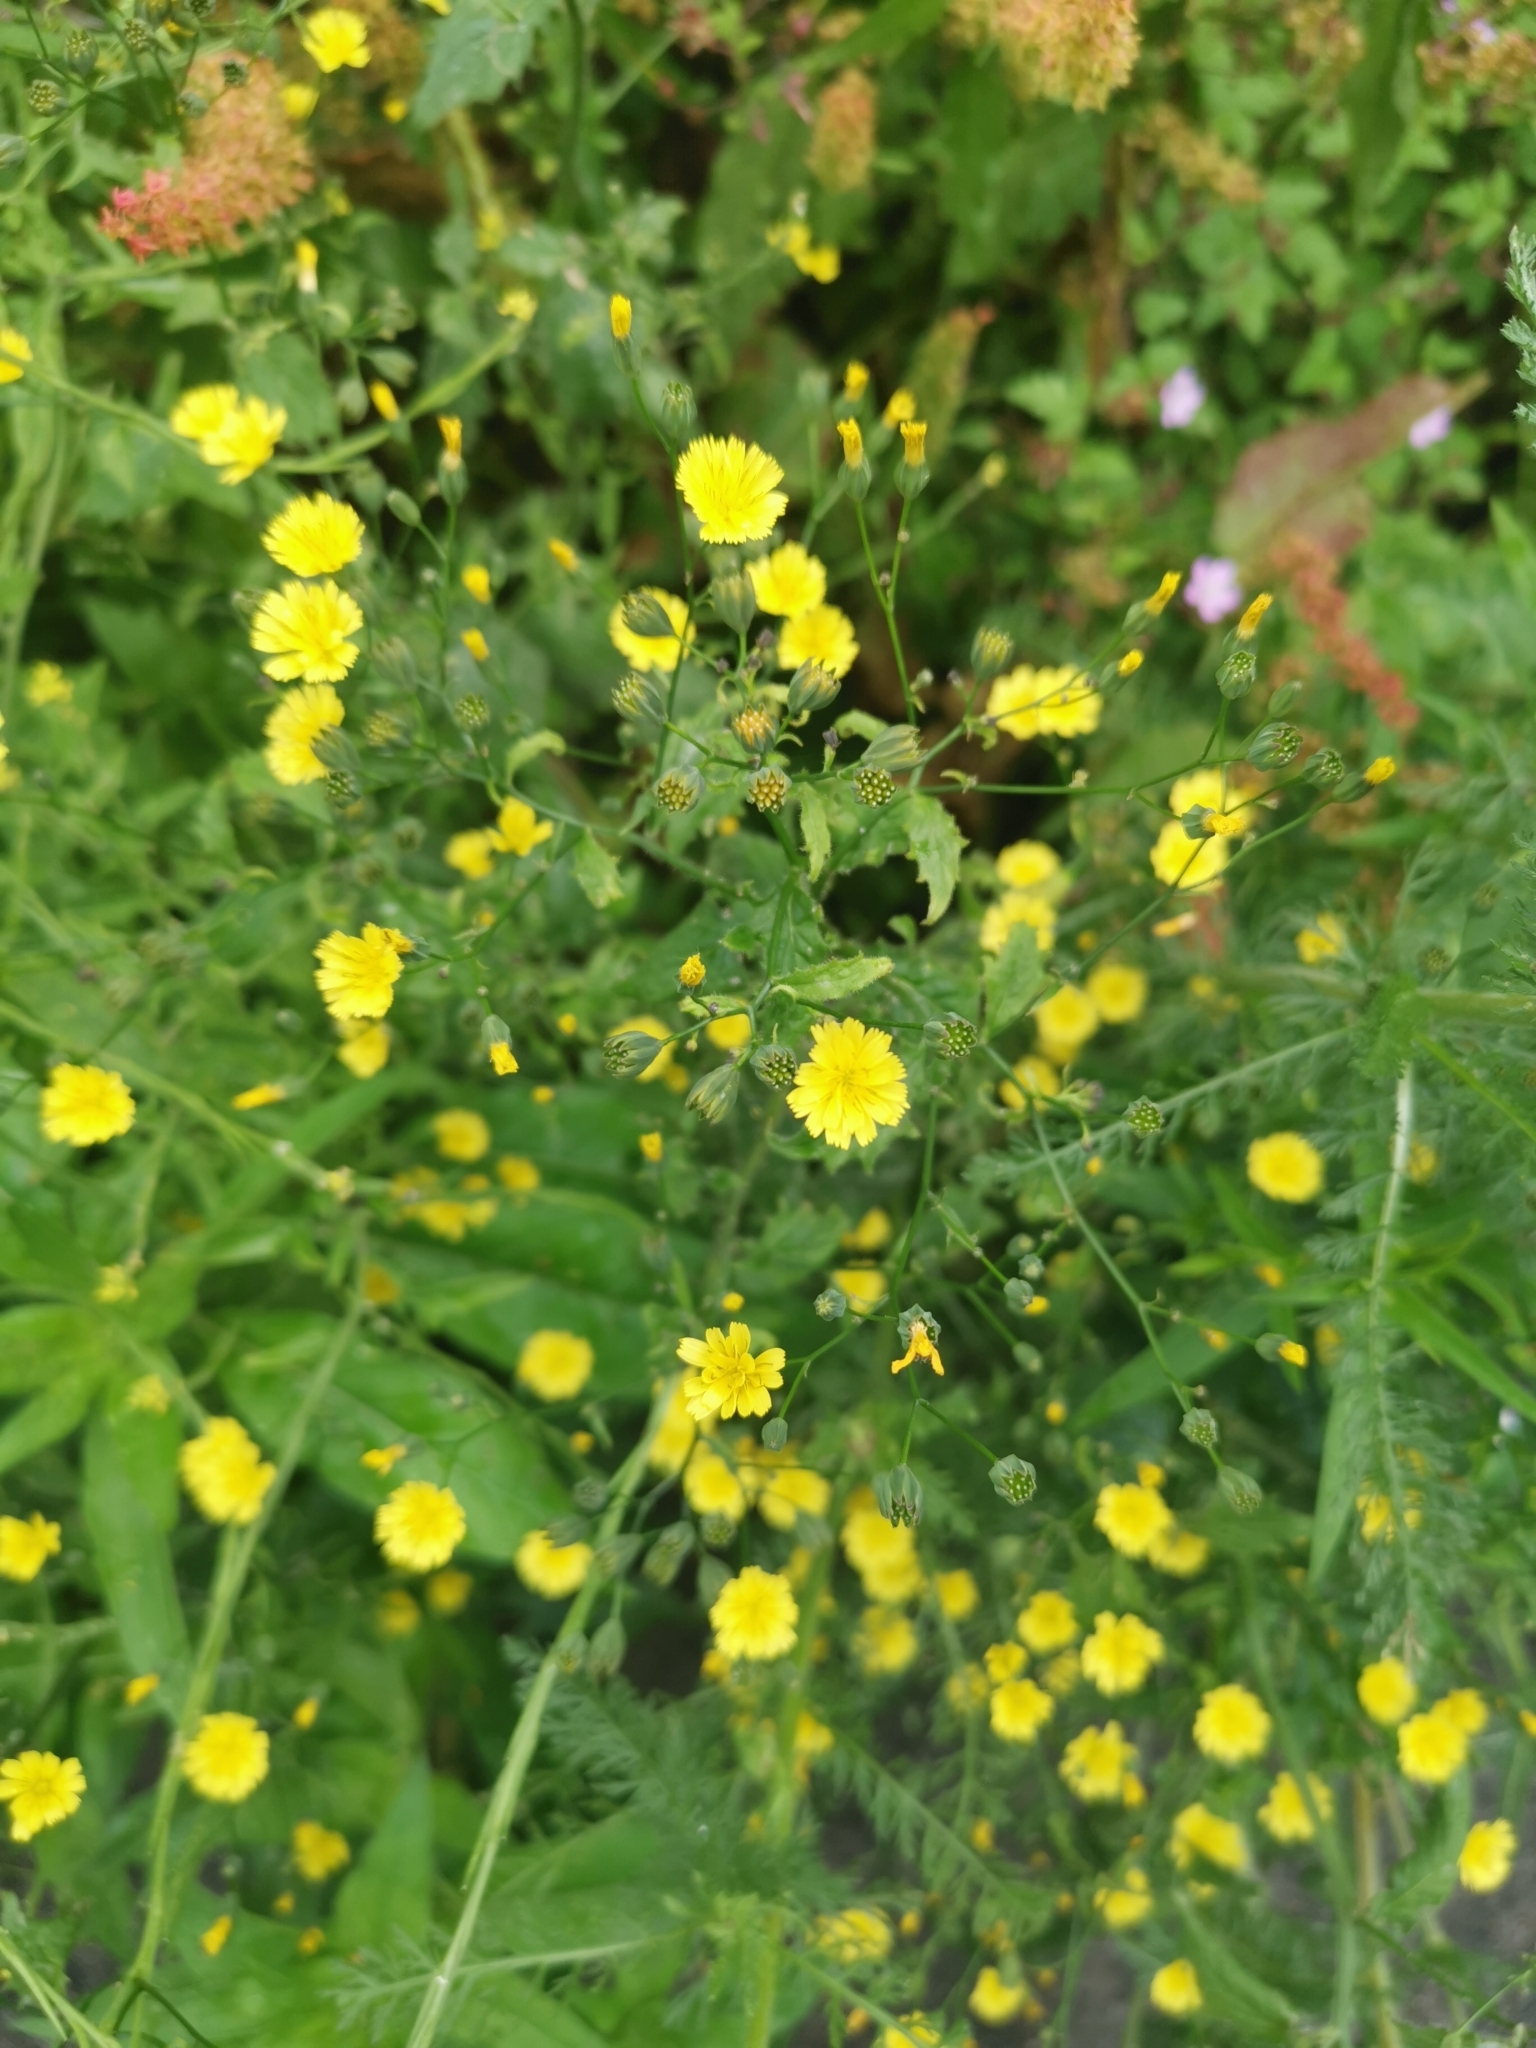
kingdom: Plantae
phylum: Tracheophyta
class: Magnoliopsida
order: Asterales
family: Asteraceae
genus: Lapsana
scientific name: Lapsana communis
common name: Nipplewort
